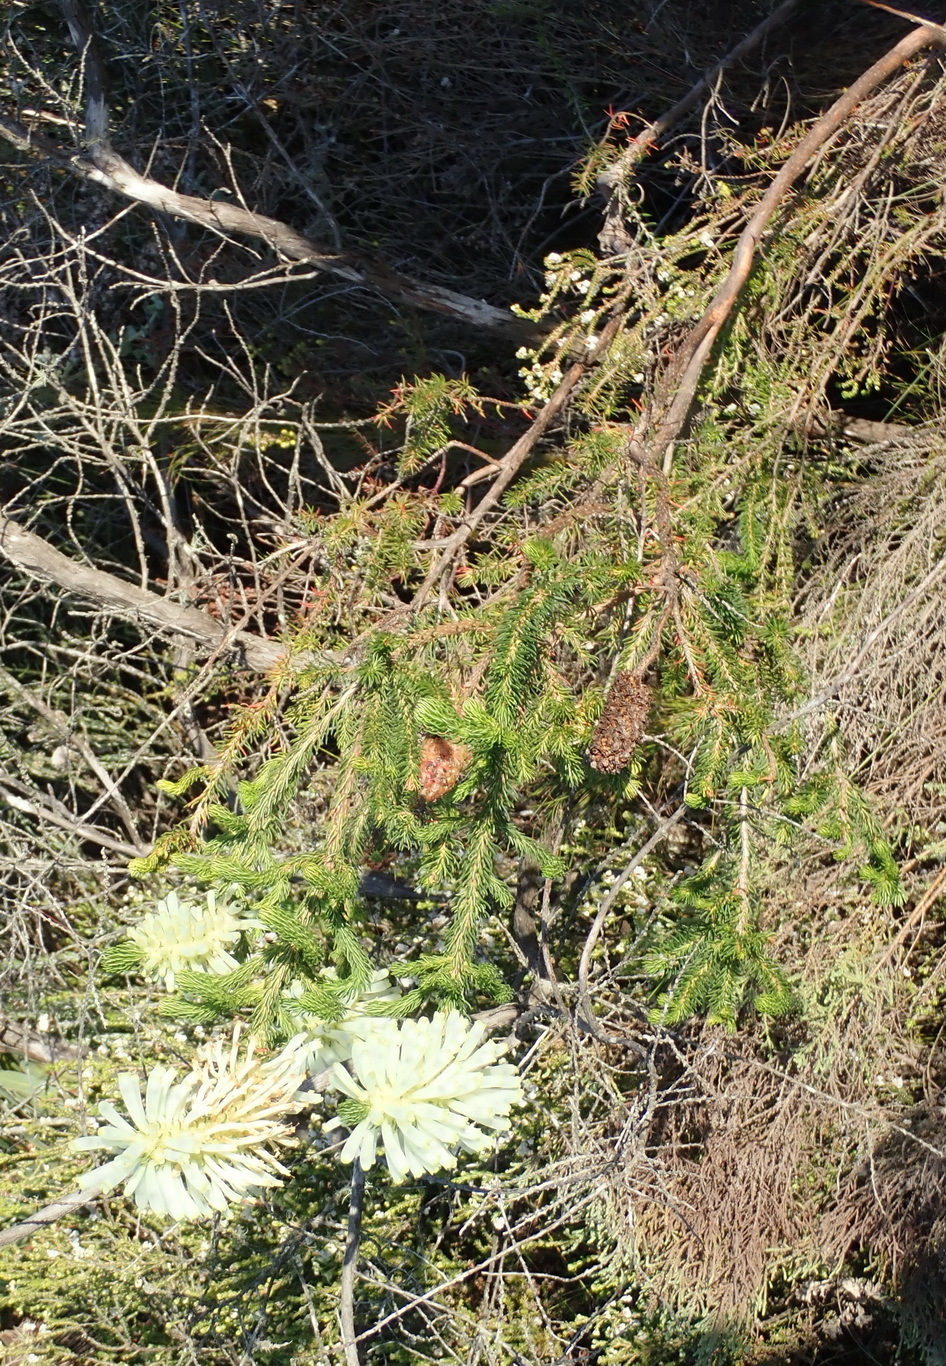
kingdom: Plantae
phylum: Tracheophyta
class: Magnoliopsida
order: Ericales
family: Ericaceae
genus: Erica
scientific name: Erica sessiliflora
